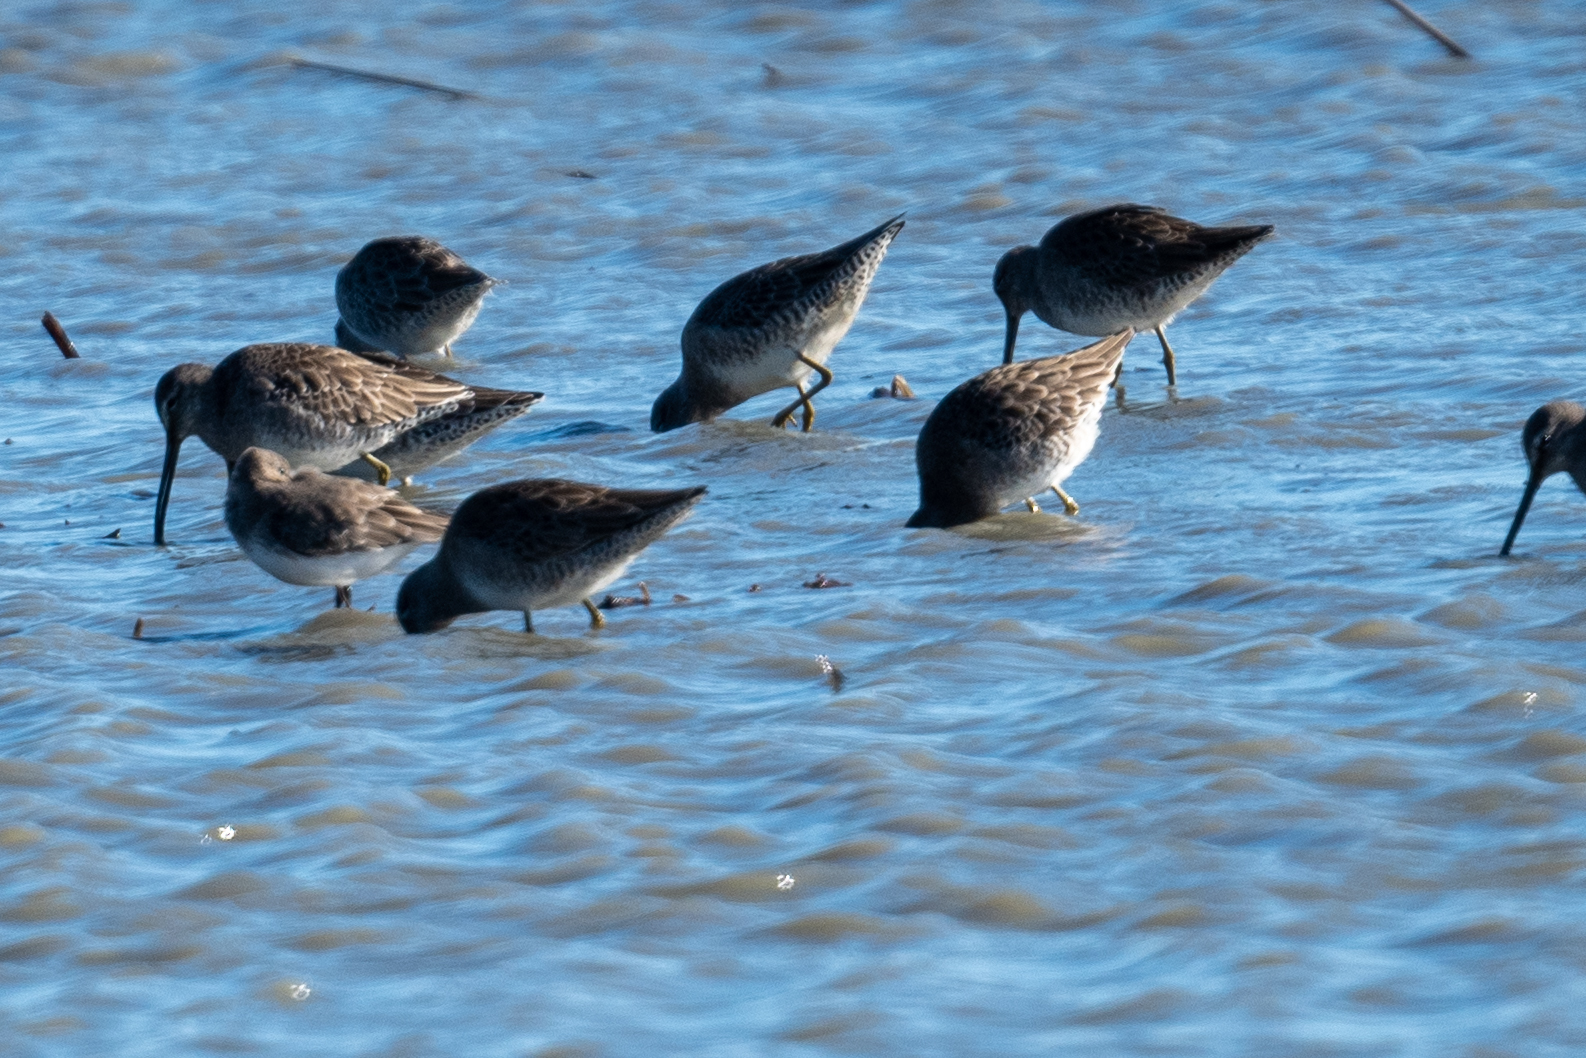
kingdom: Animalia
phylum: Chordata
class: Aves
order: Charadriiformes
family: Scolopacidae
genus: Limnodromus
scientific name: Limnodromus scolopaceus
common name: Long-billed dowitcher
